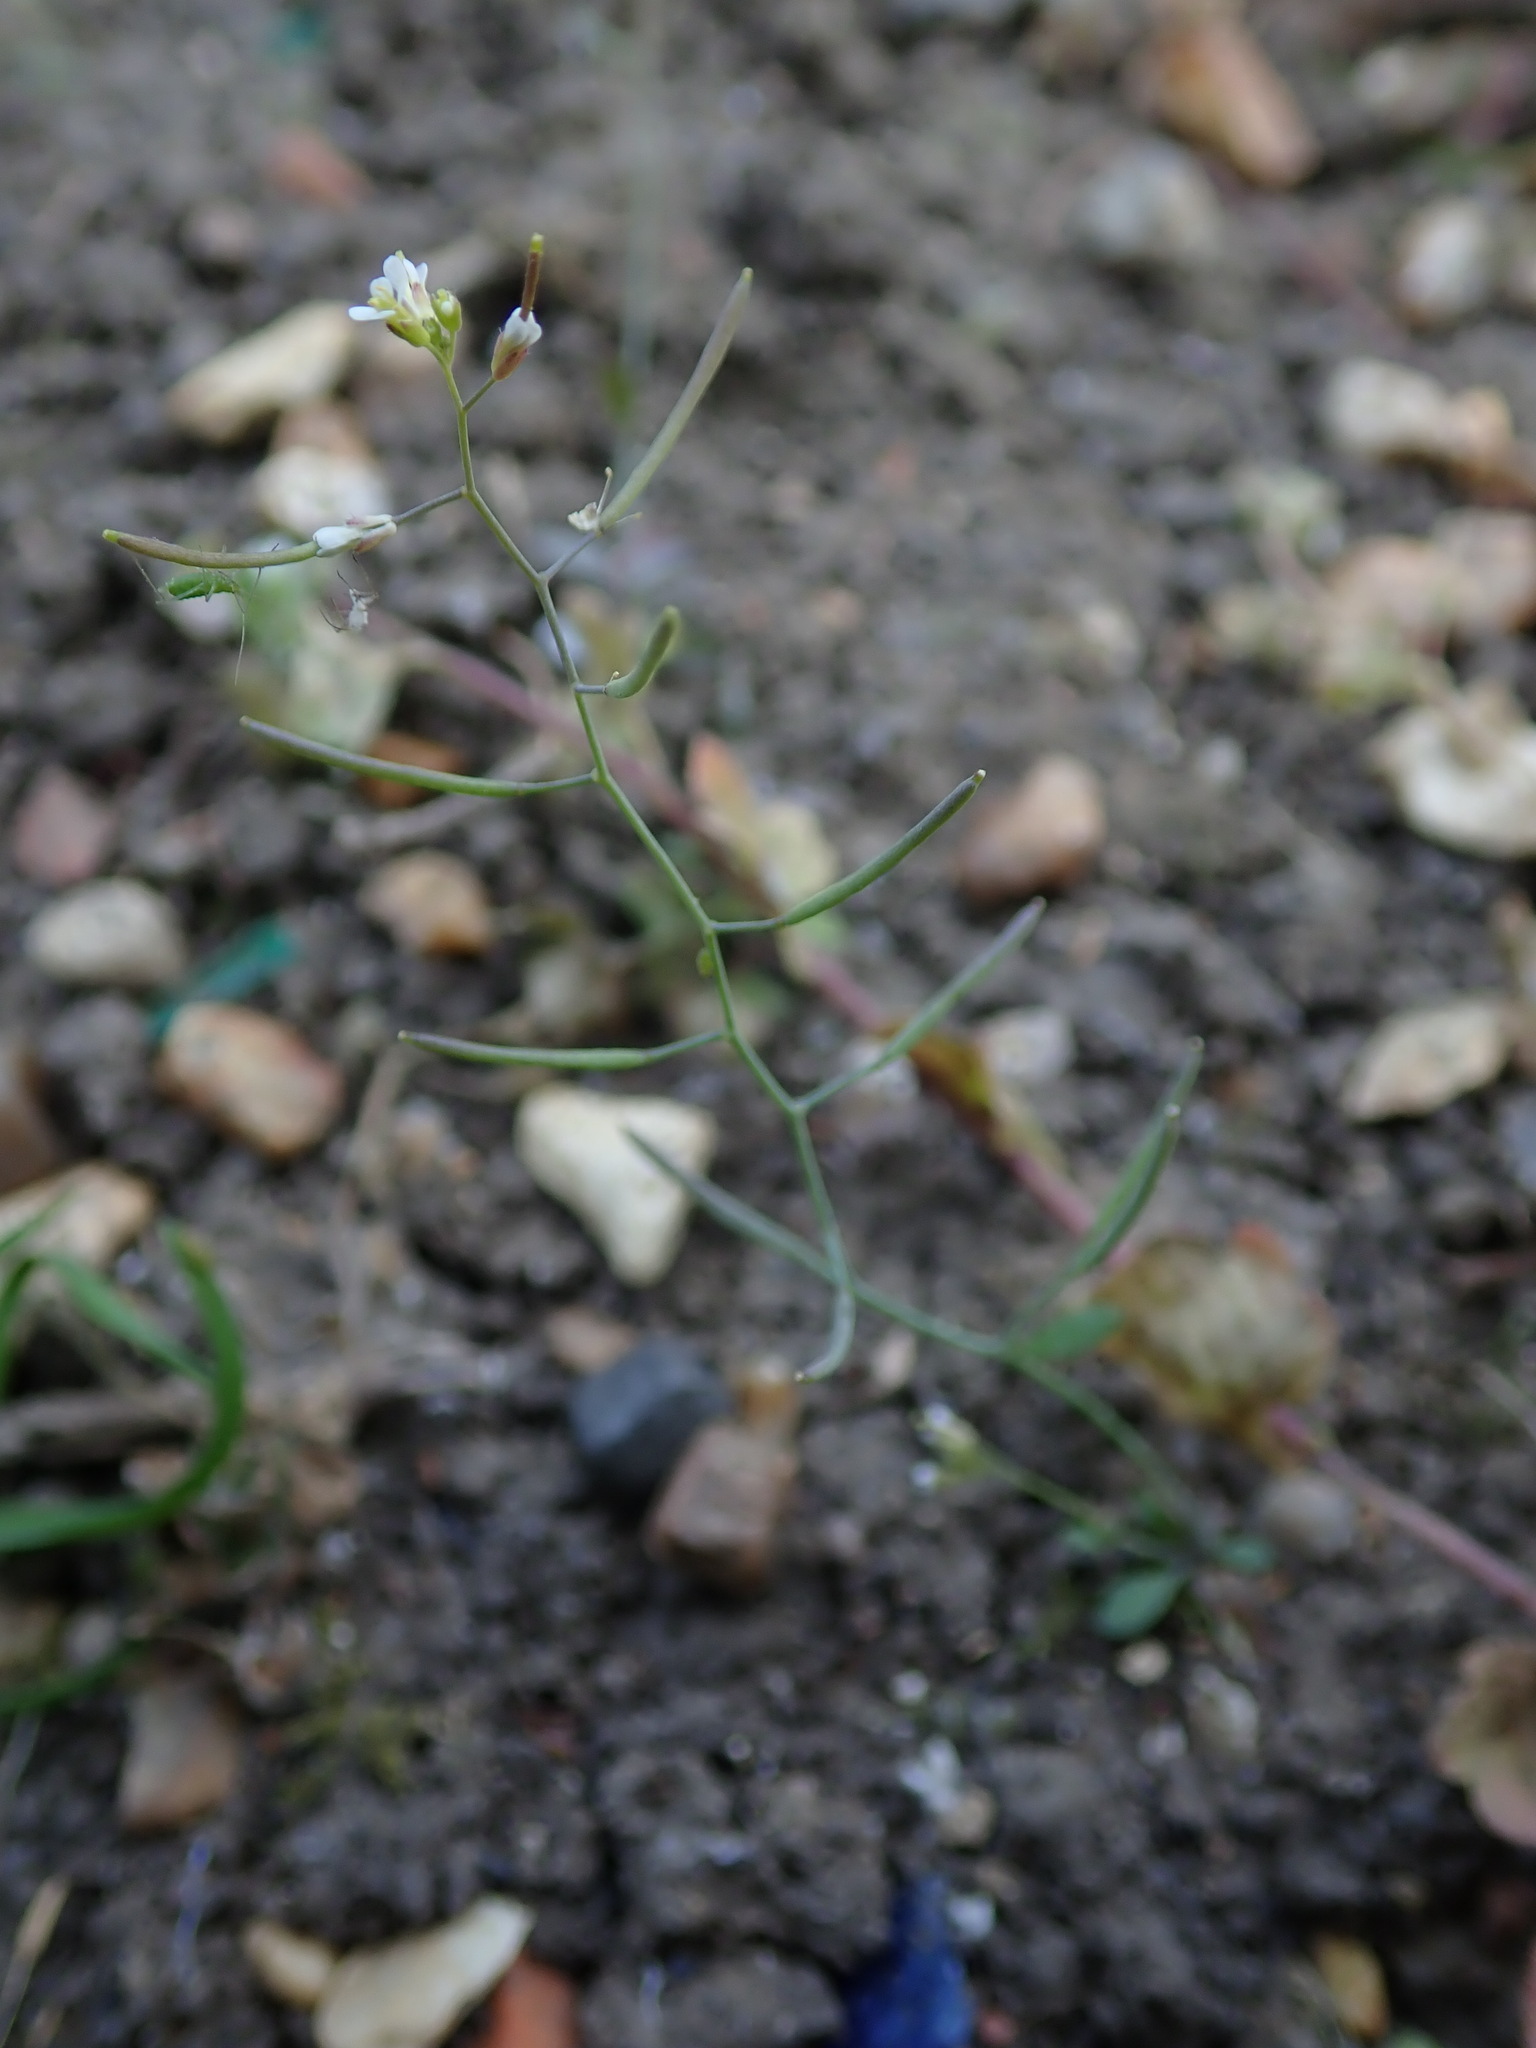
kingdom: Plantae
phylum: Tracheophyta
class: Magnoliopsida
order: Brassicales
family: Brassicaceae
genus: Arabidopsis
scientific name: Arabidopsis thaliana
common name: Thale cress
